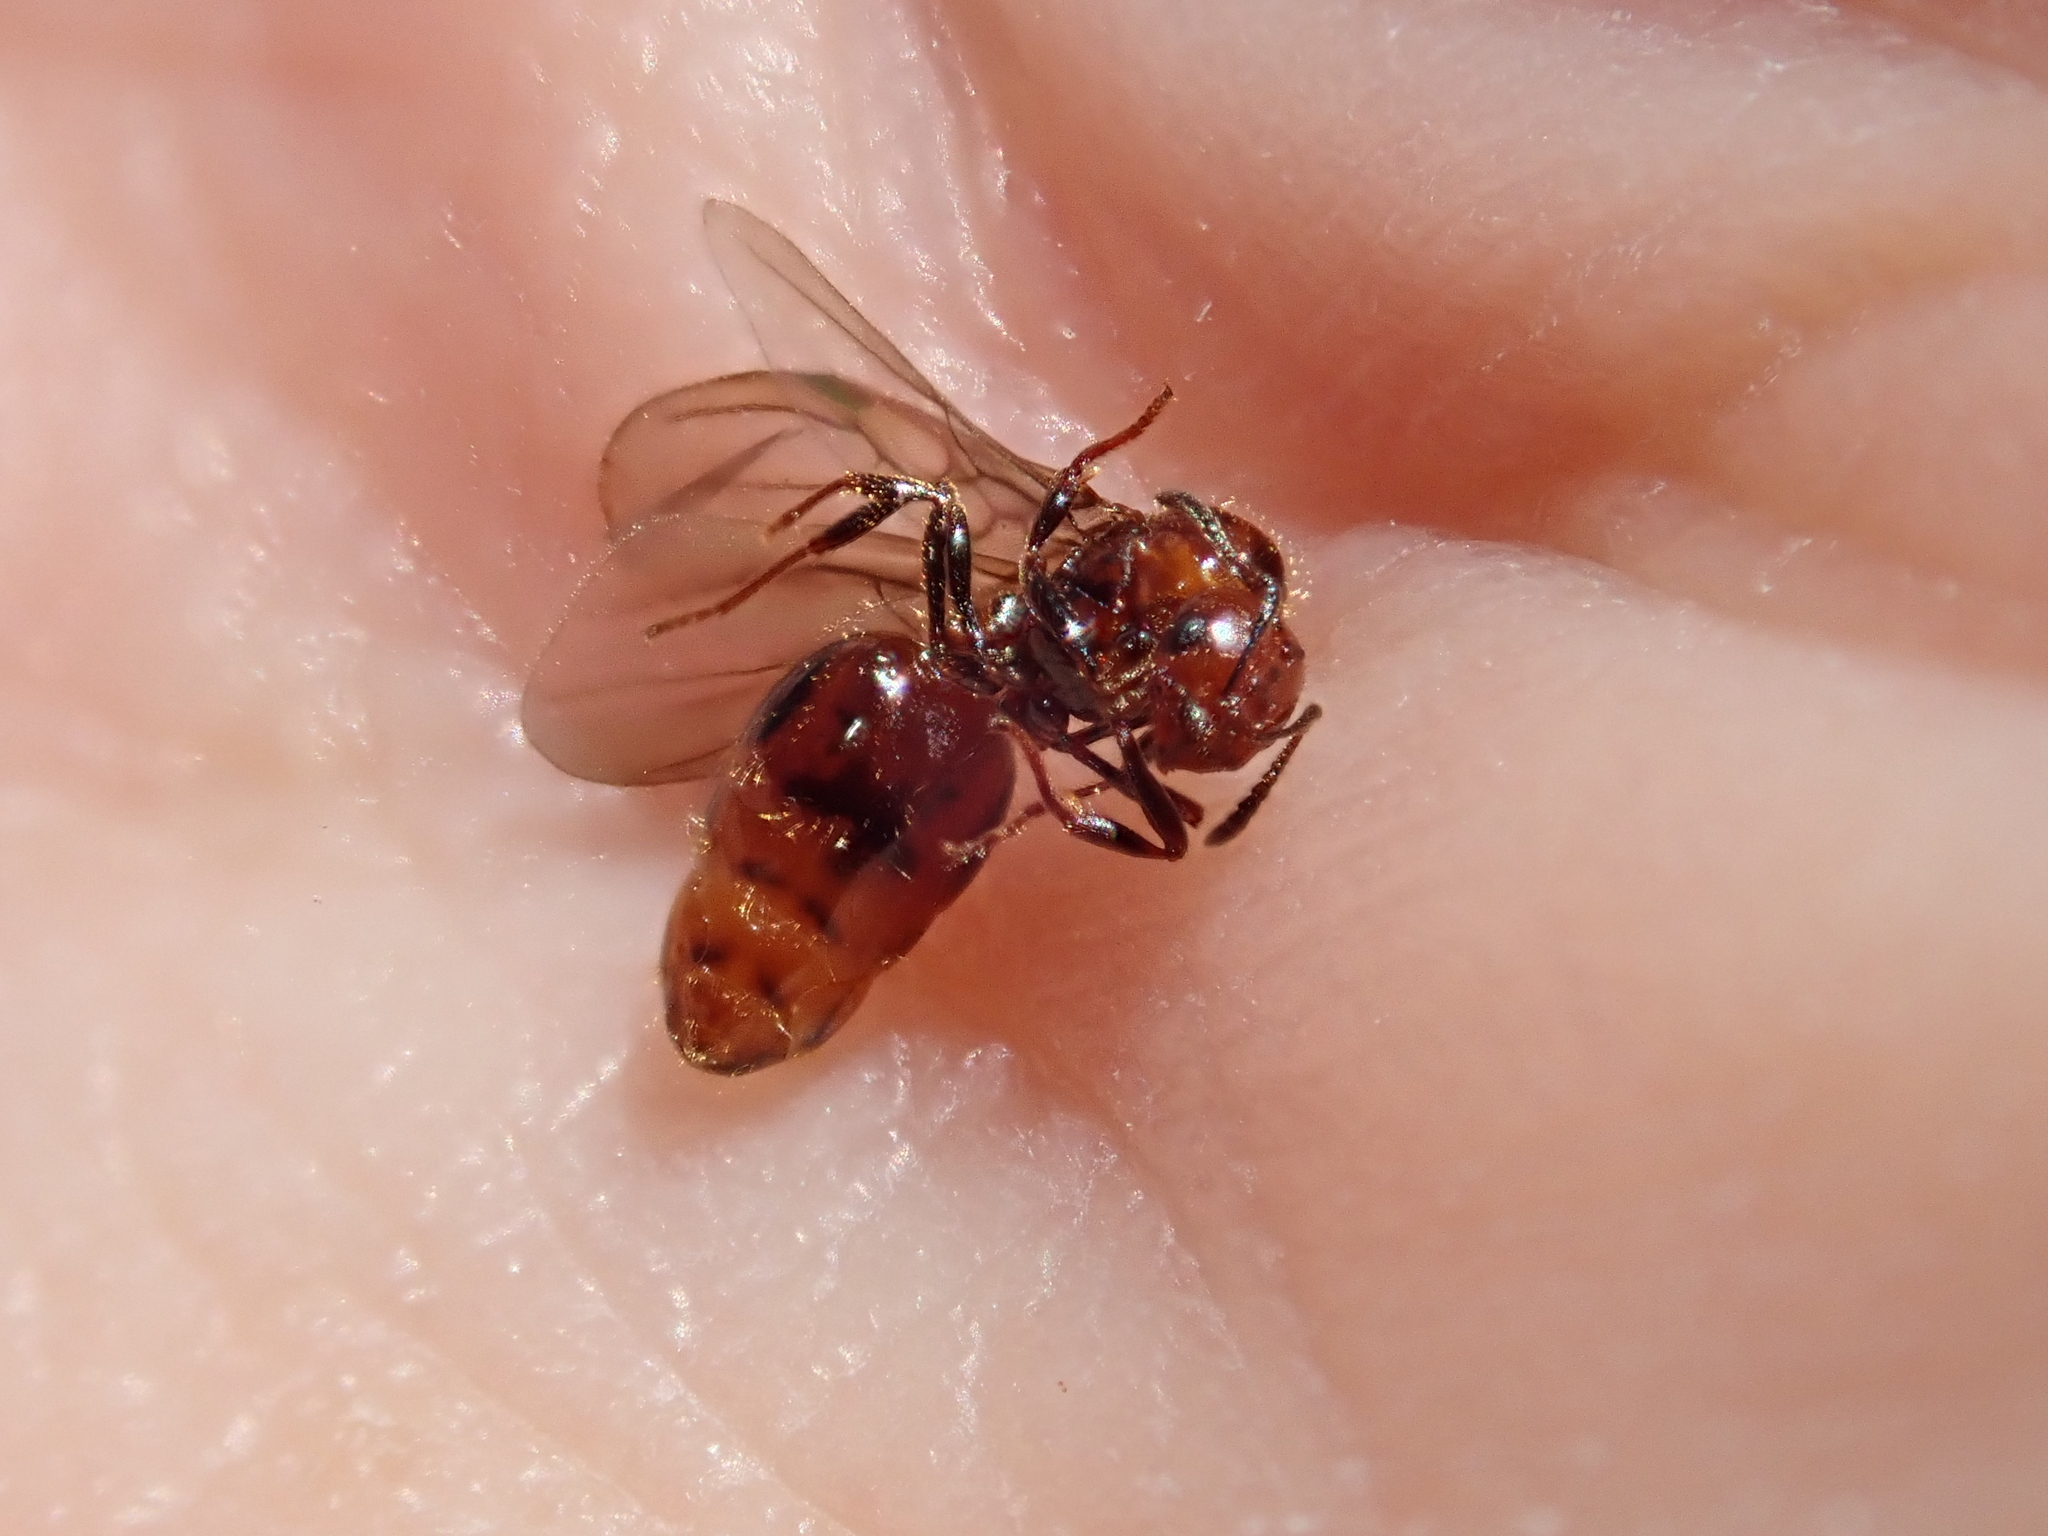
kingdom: Animalia
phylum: Arthropoda
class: Insecta
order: Hymenoptera
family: Formicidae
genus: Monomorium
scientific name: Monomorium antarcticum
